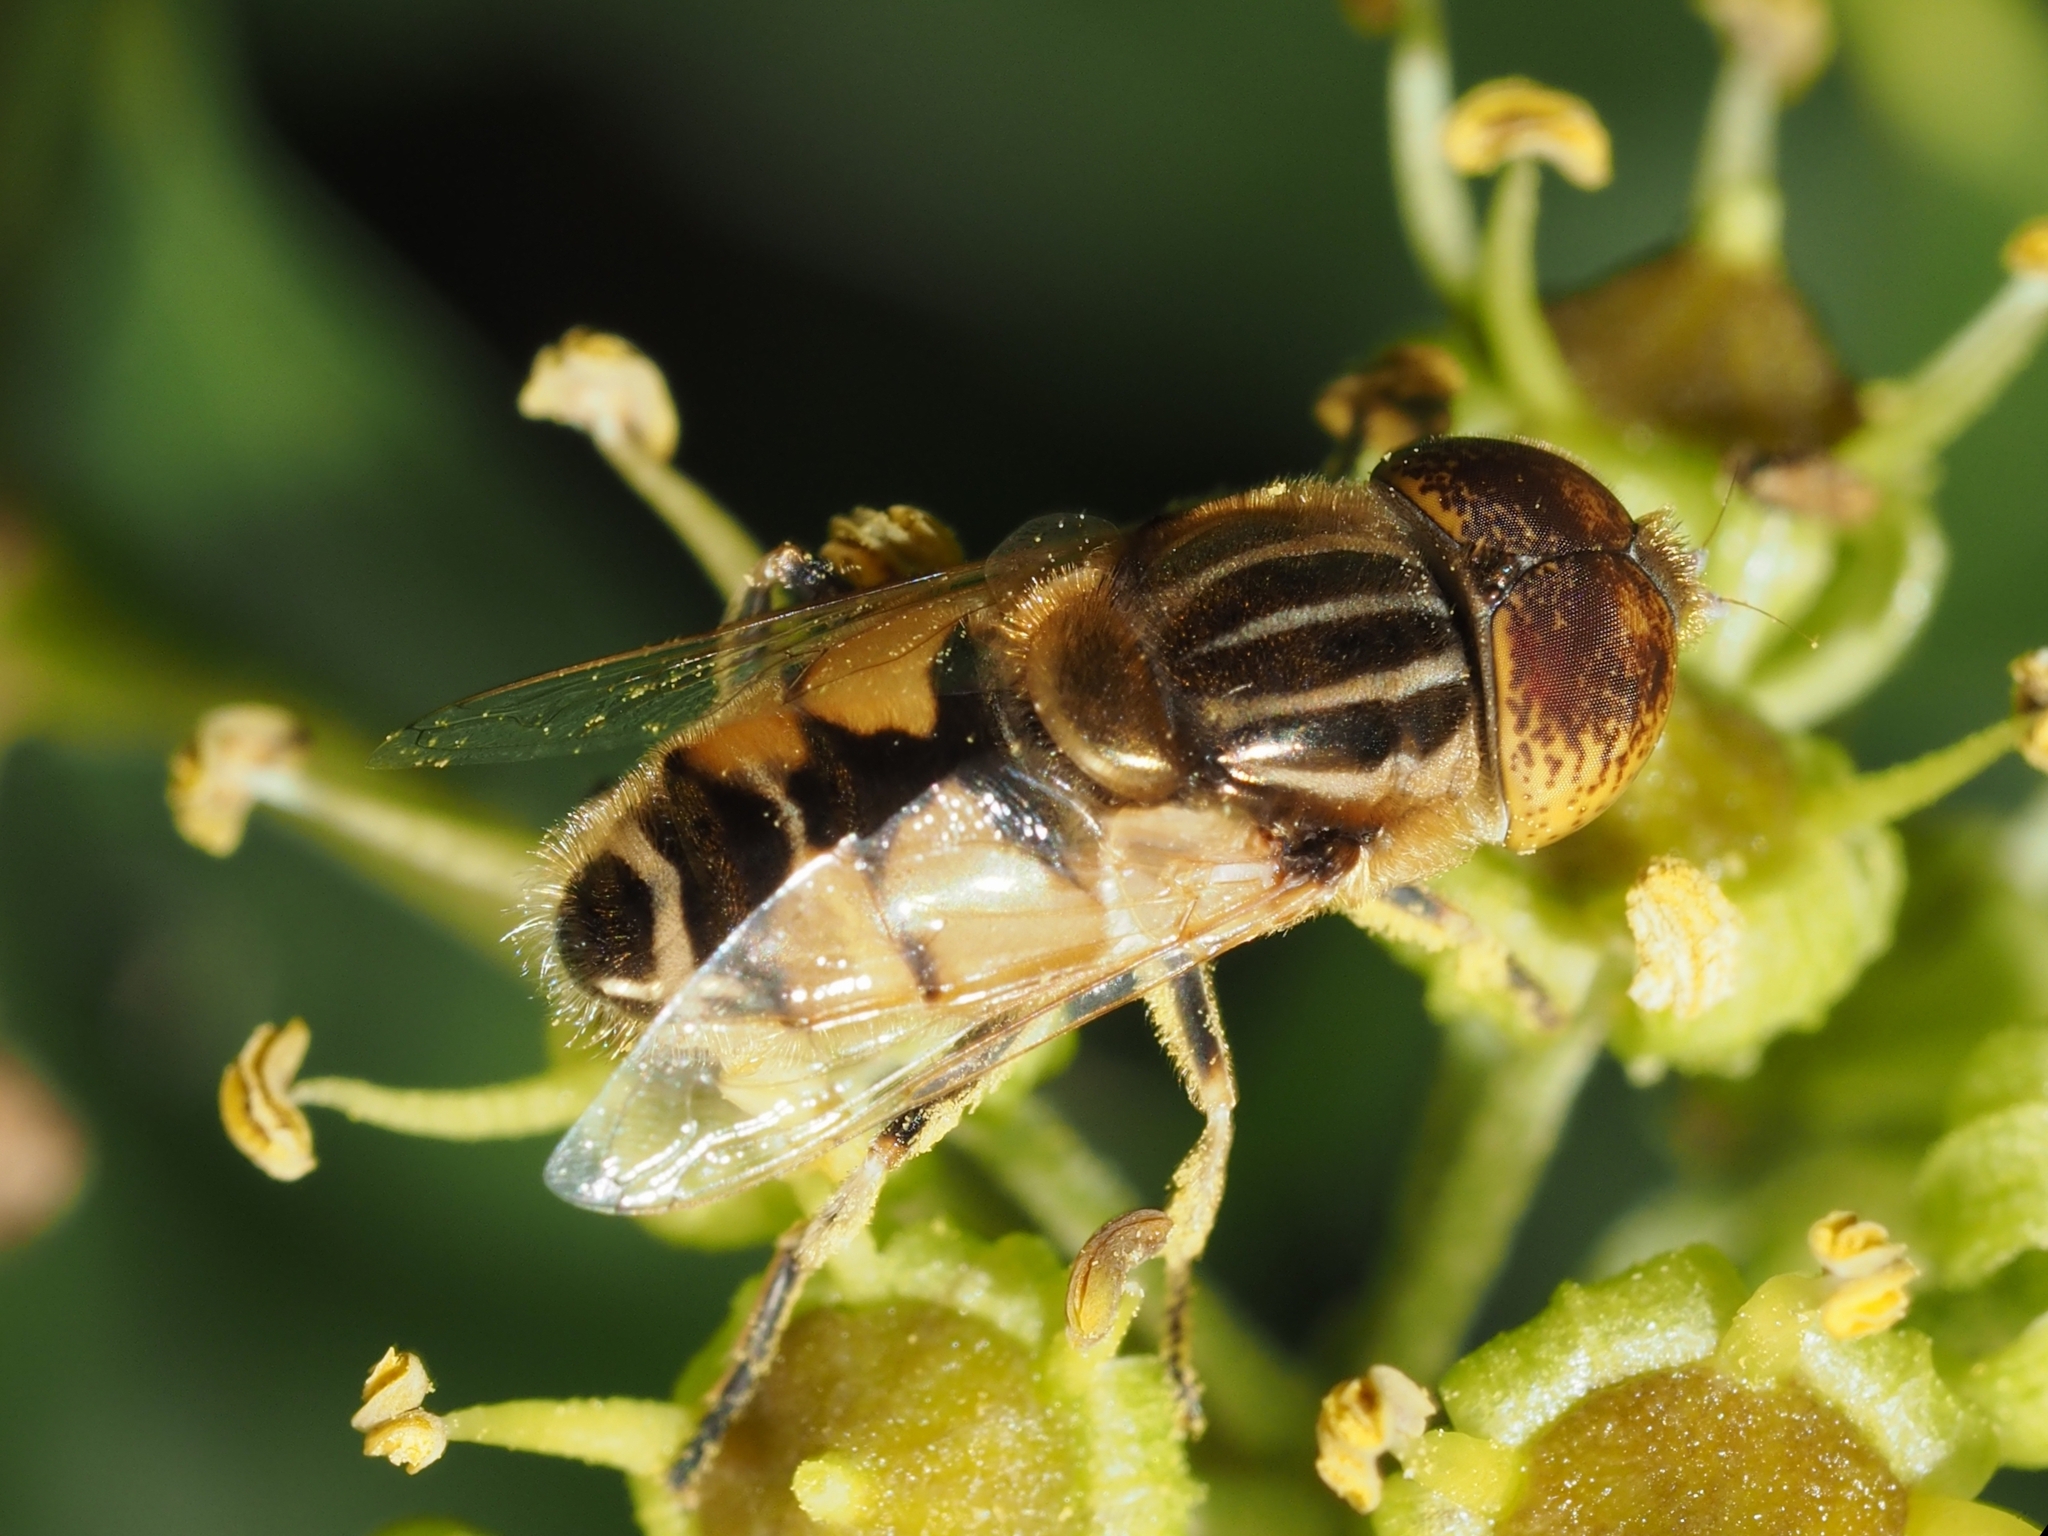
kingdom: Animalia
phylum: Arthropoda
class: Insecta
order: Diptera
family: Syrphidae
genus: Eristalinus
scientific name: Eristalinus megacephalus
